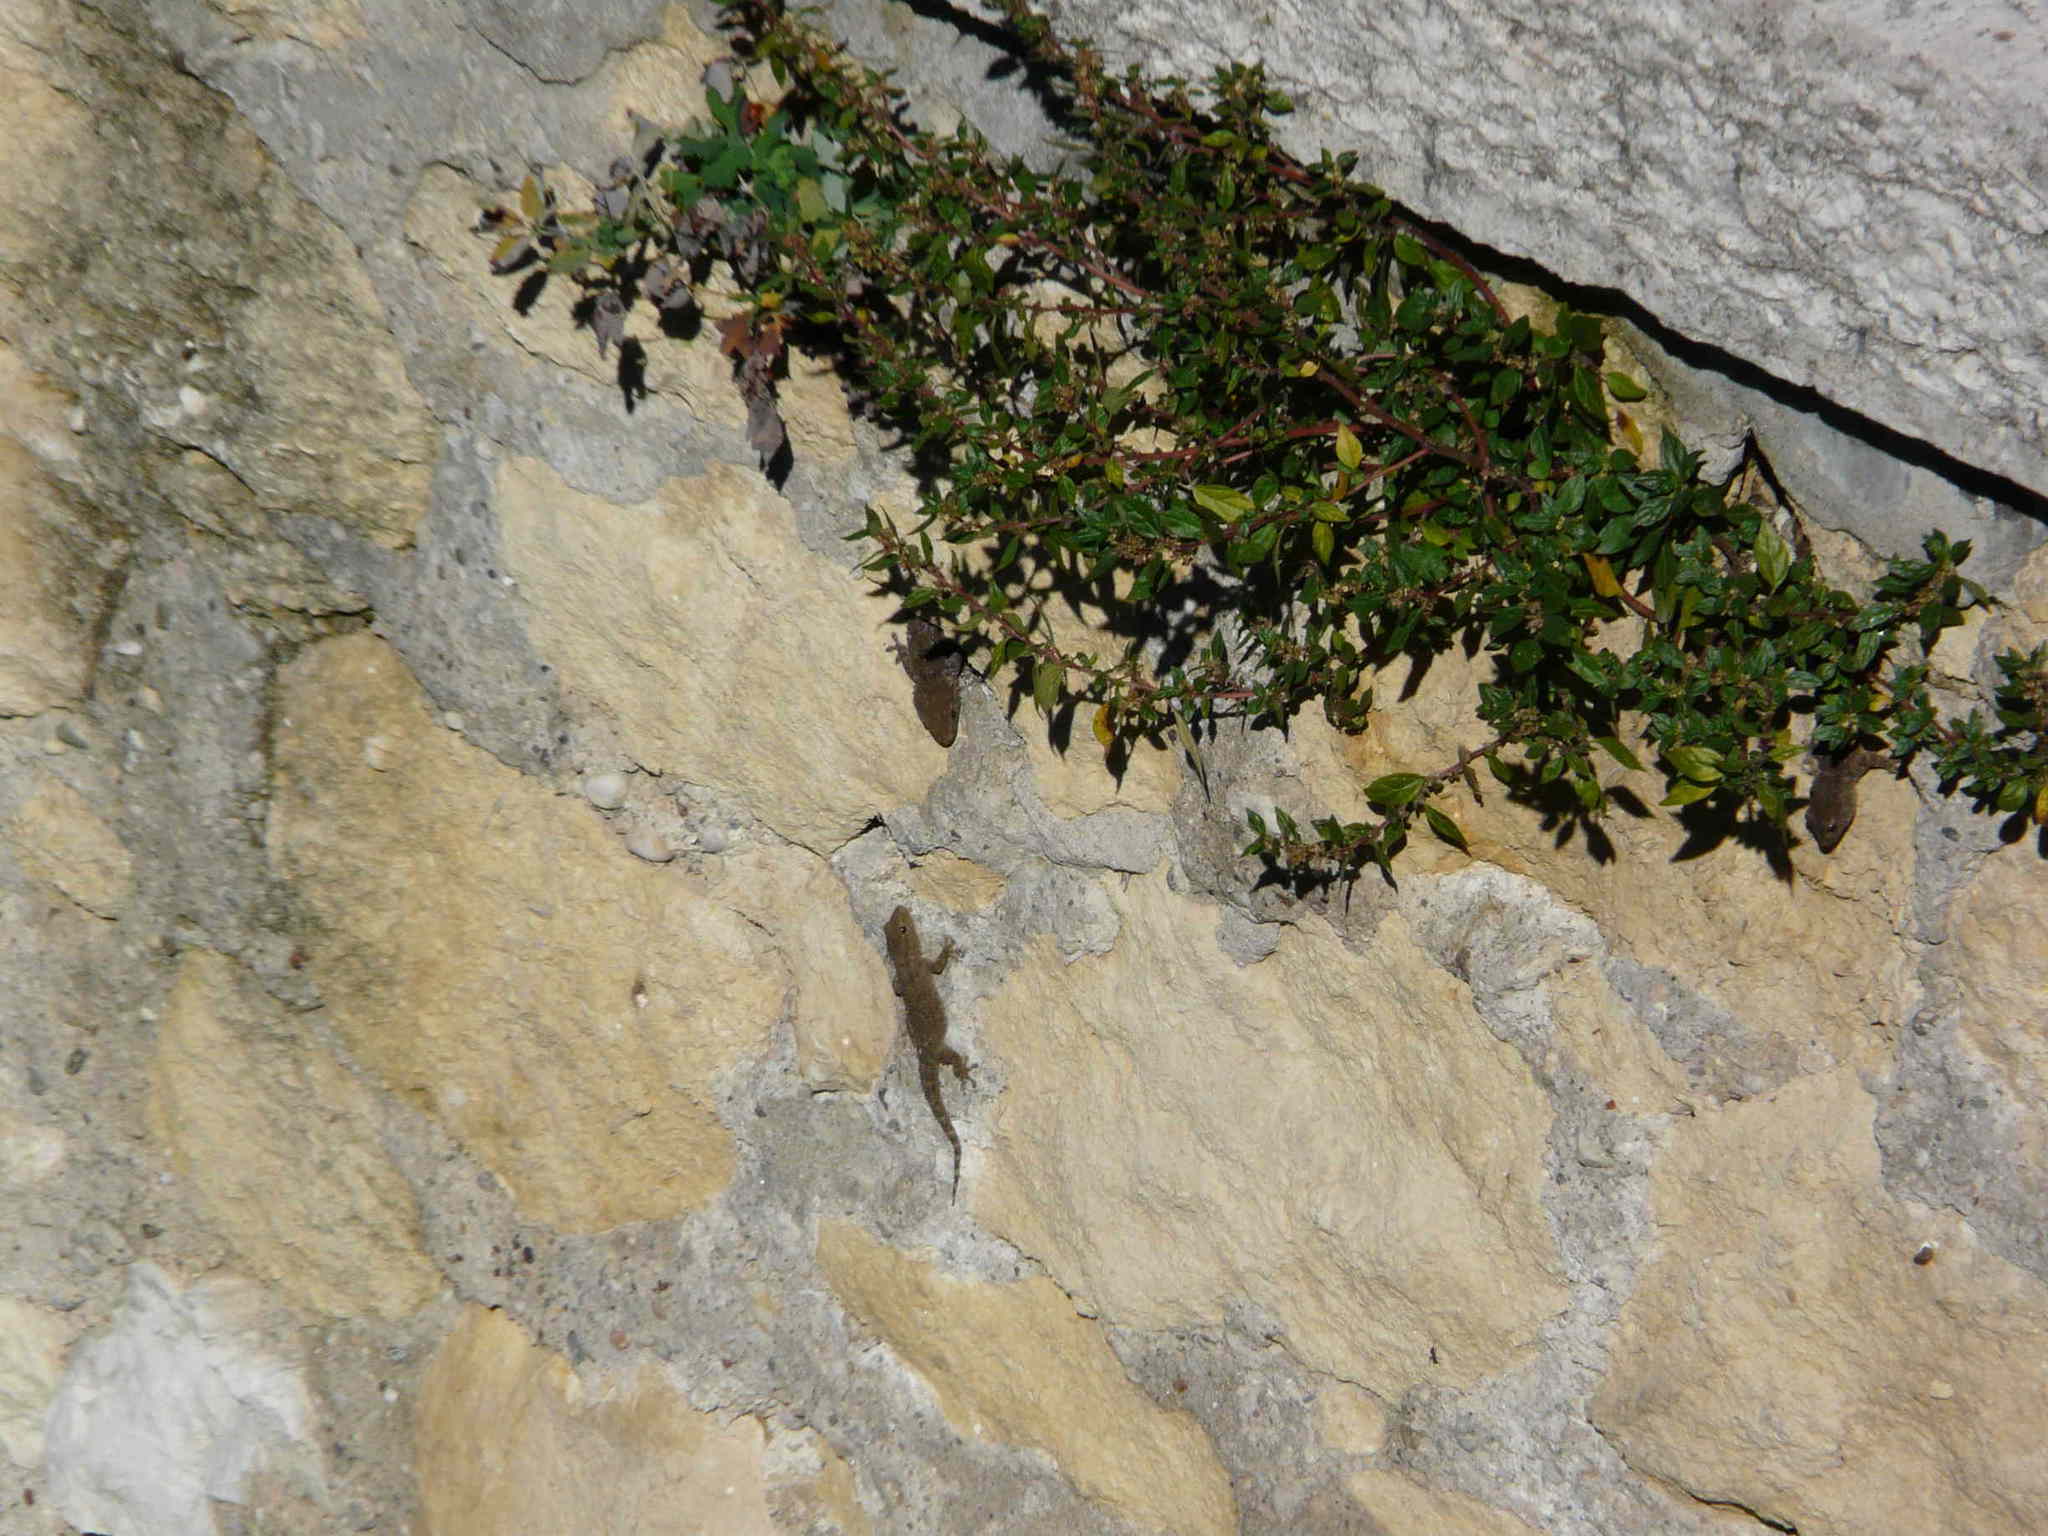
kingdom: Animalia
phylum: Chordata
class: Squamata
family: Phyllodactylidae
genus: Tarentola
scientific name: Tarentola mauritanica
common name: Moorish gecko
